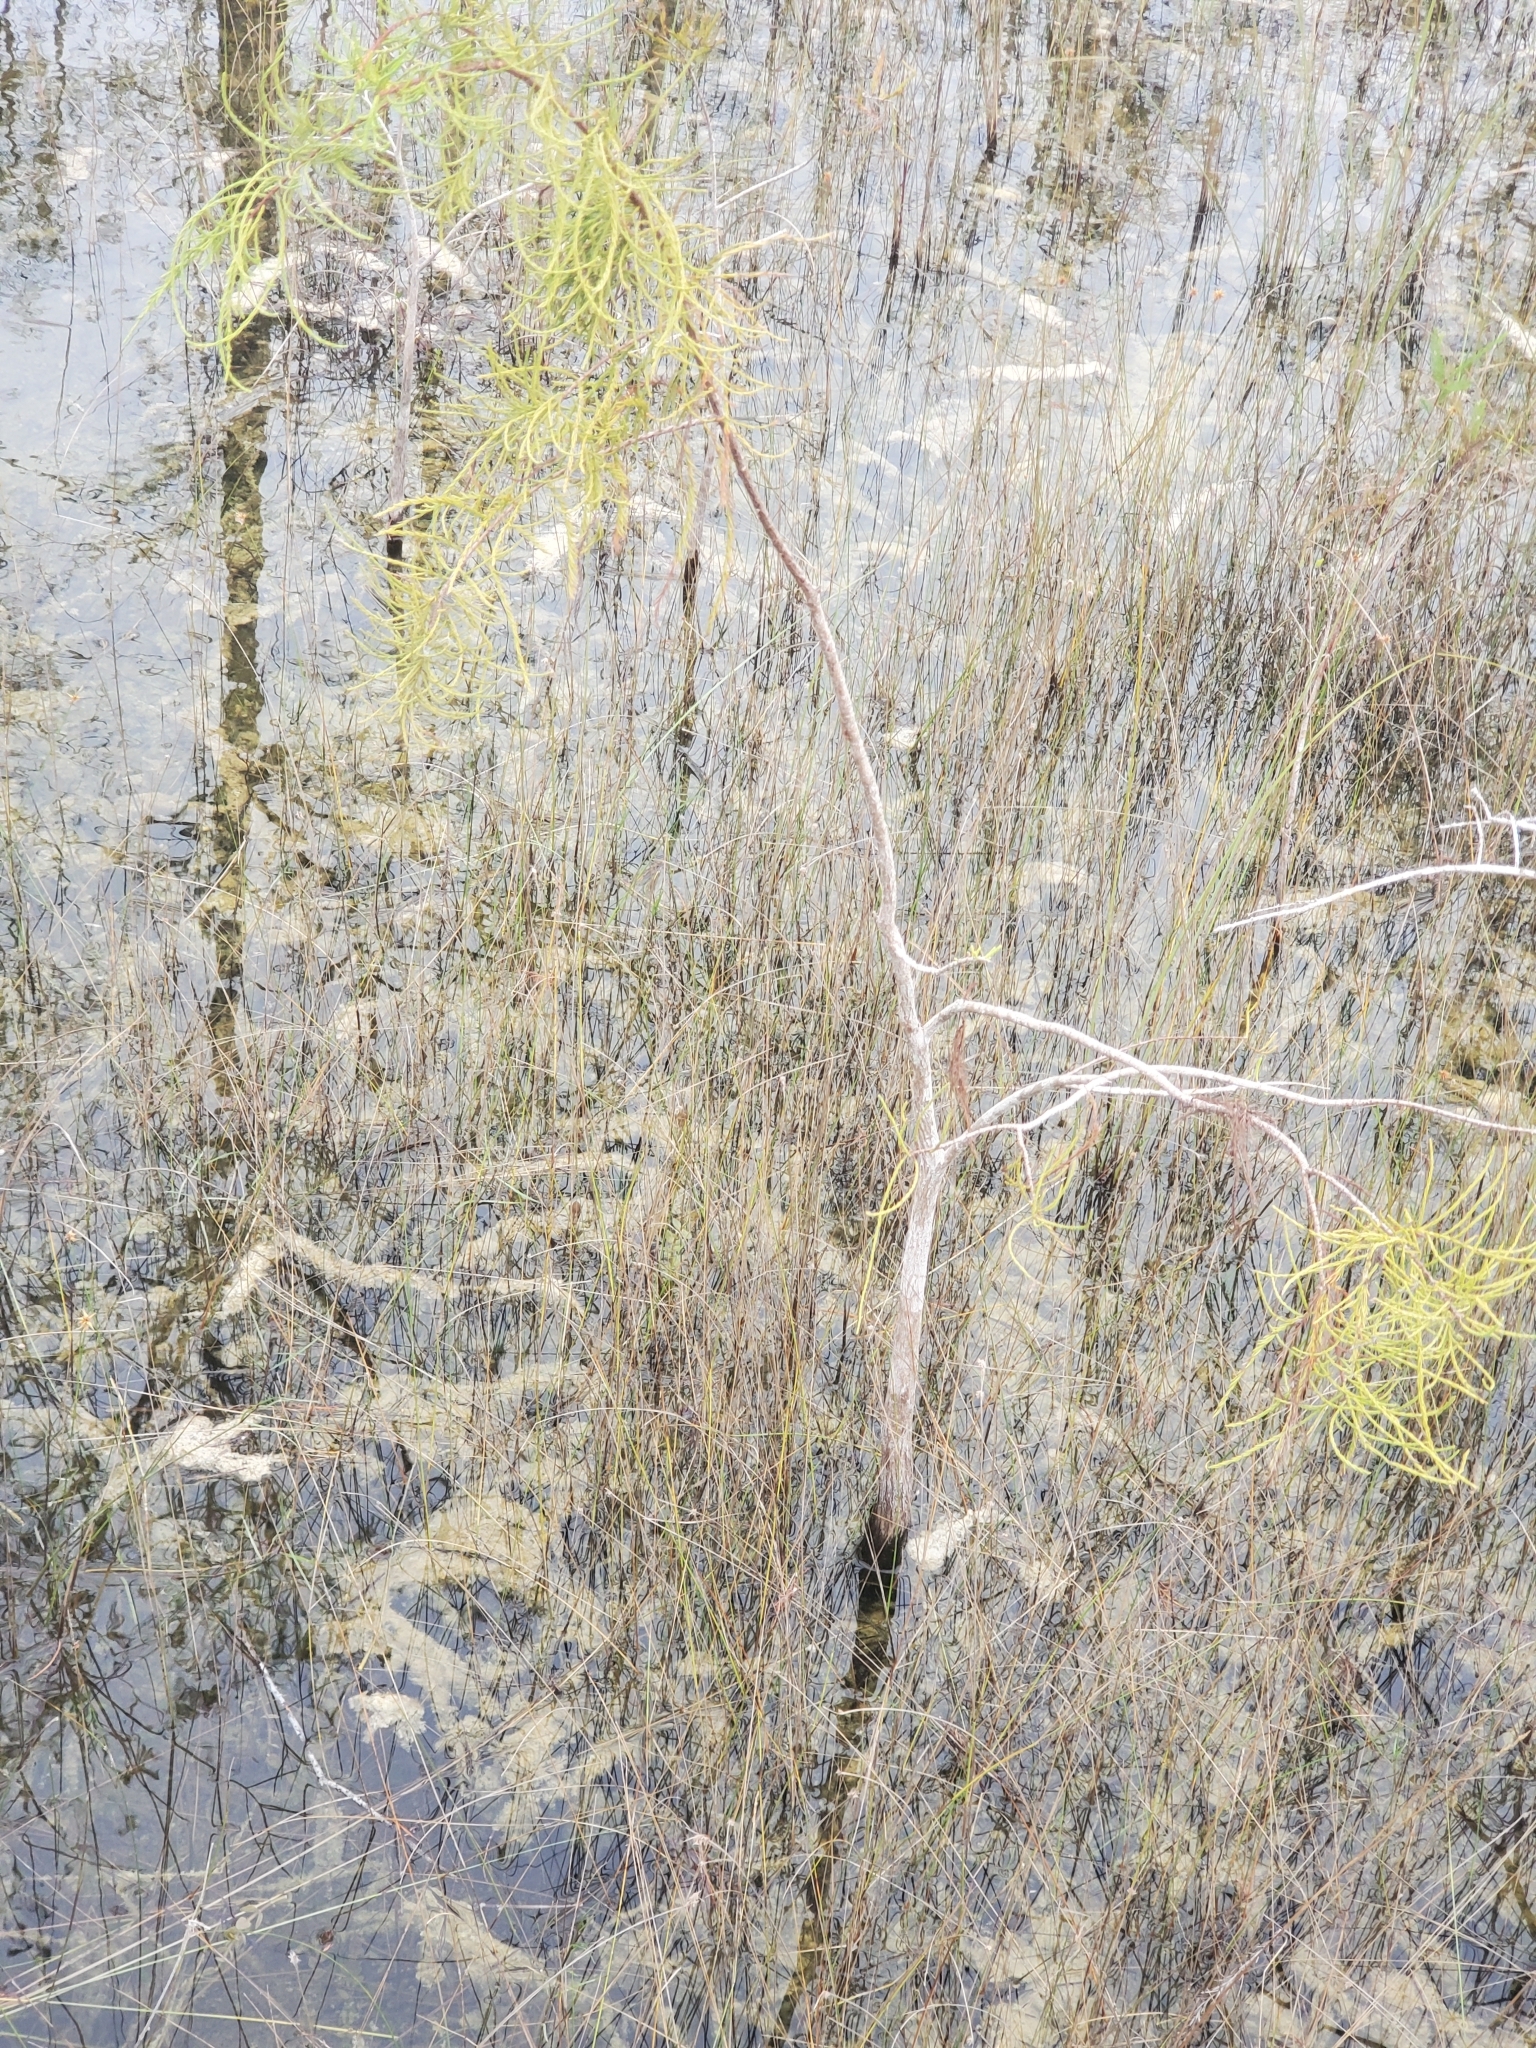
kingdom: Plantae
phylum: Tracheophyta
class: Pinopsida
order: Pinales
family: Cupressaceae
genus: Taxodium
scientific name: Taxodium distichum
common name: Bald cypress
